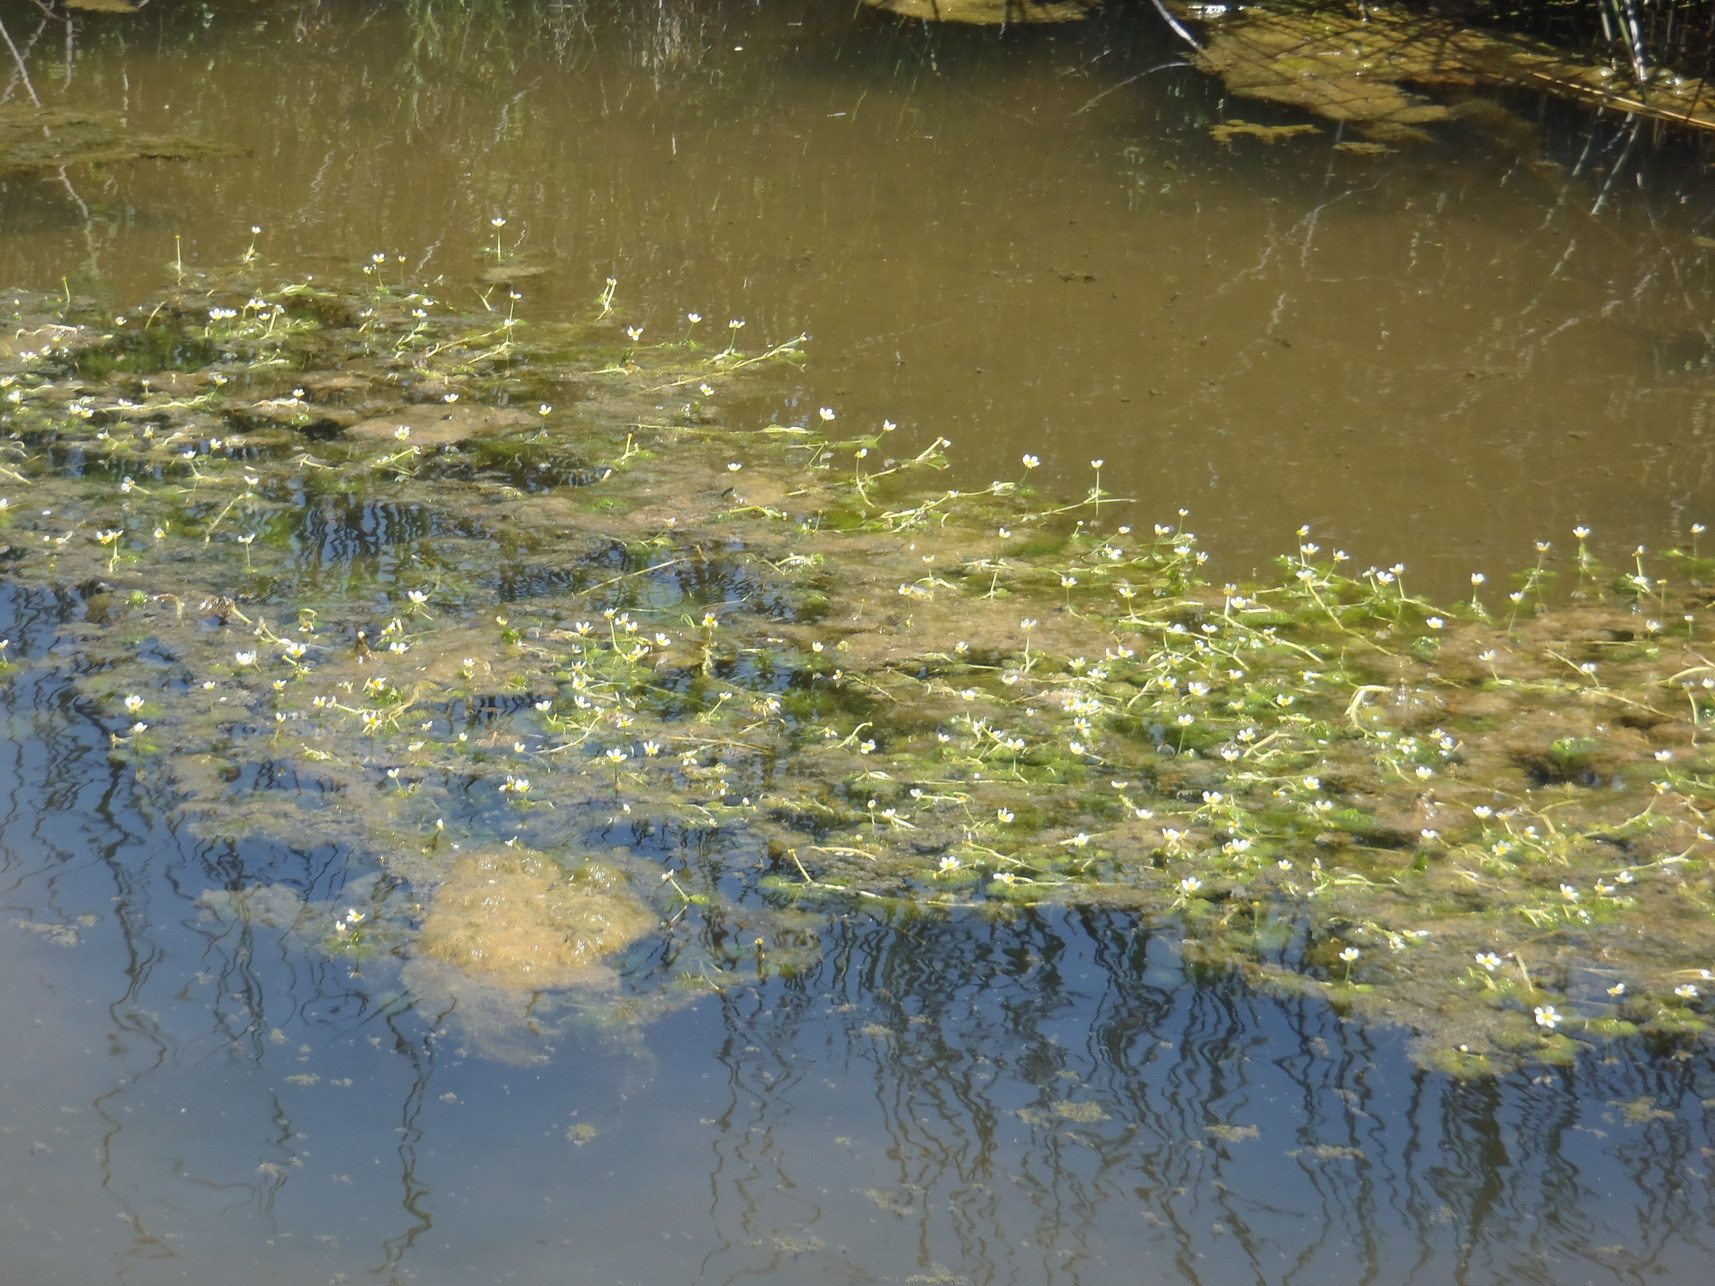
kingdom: Plantae
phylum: Tracheophyta
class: Magnoliopsida
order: Ranunculales
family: Ranunculaceae
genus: Ranunculus
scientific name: Ranunculus rionii
